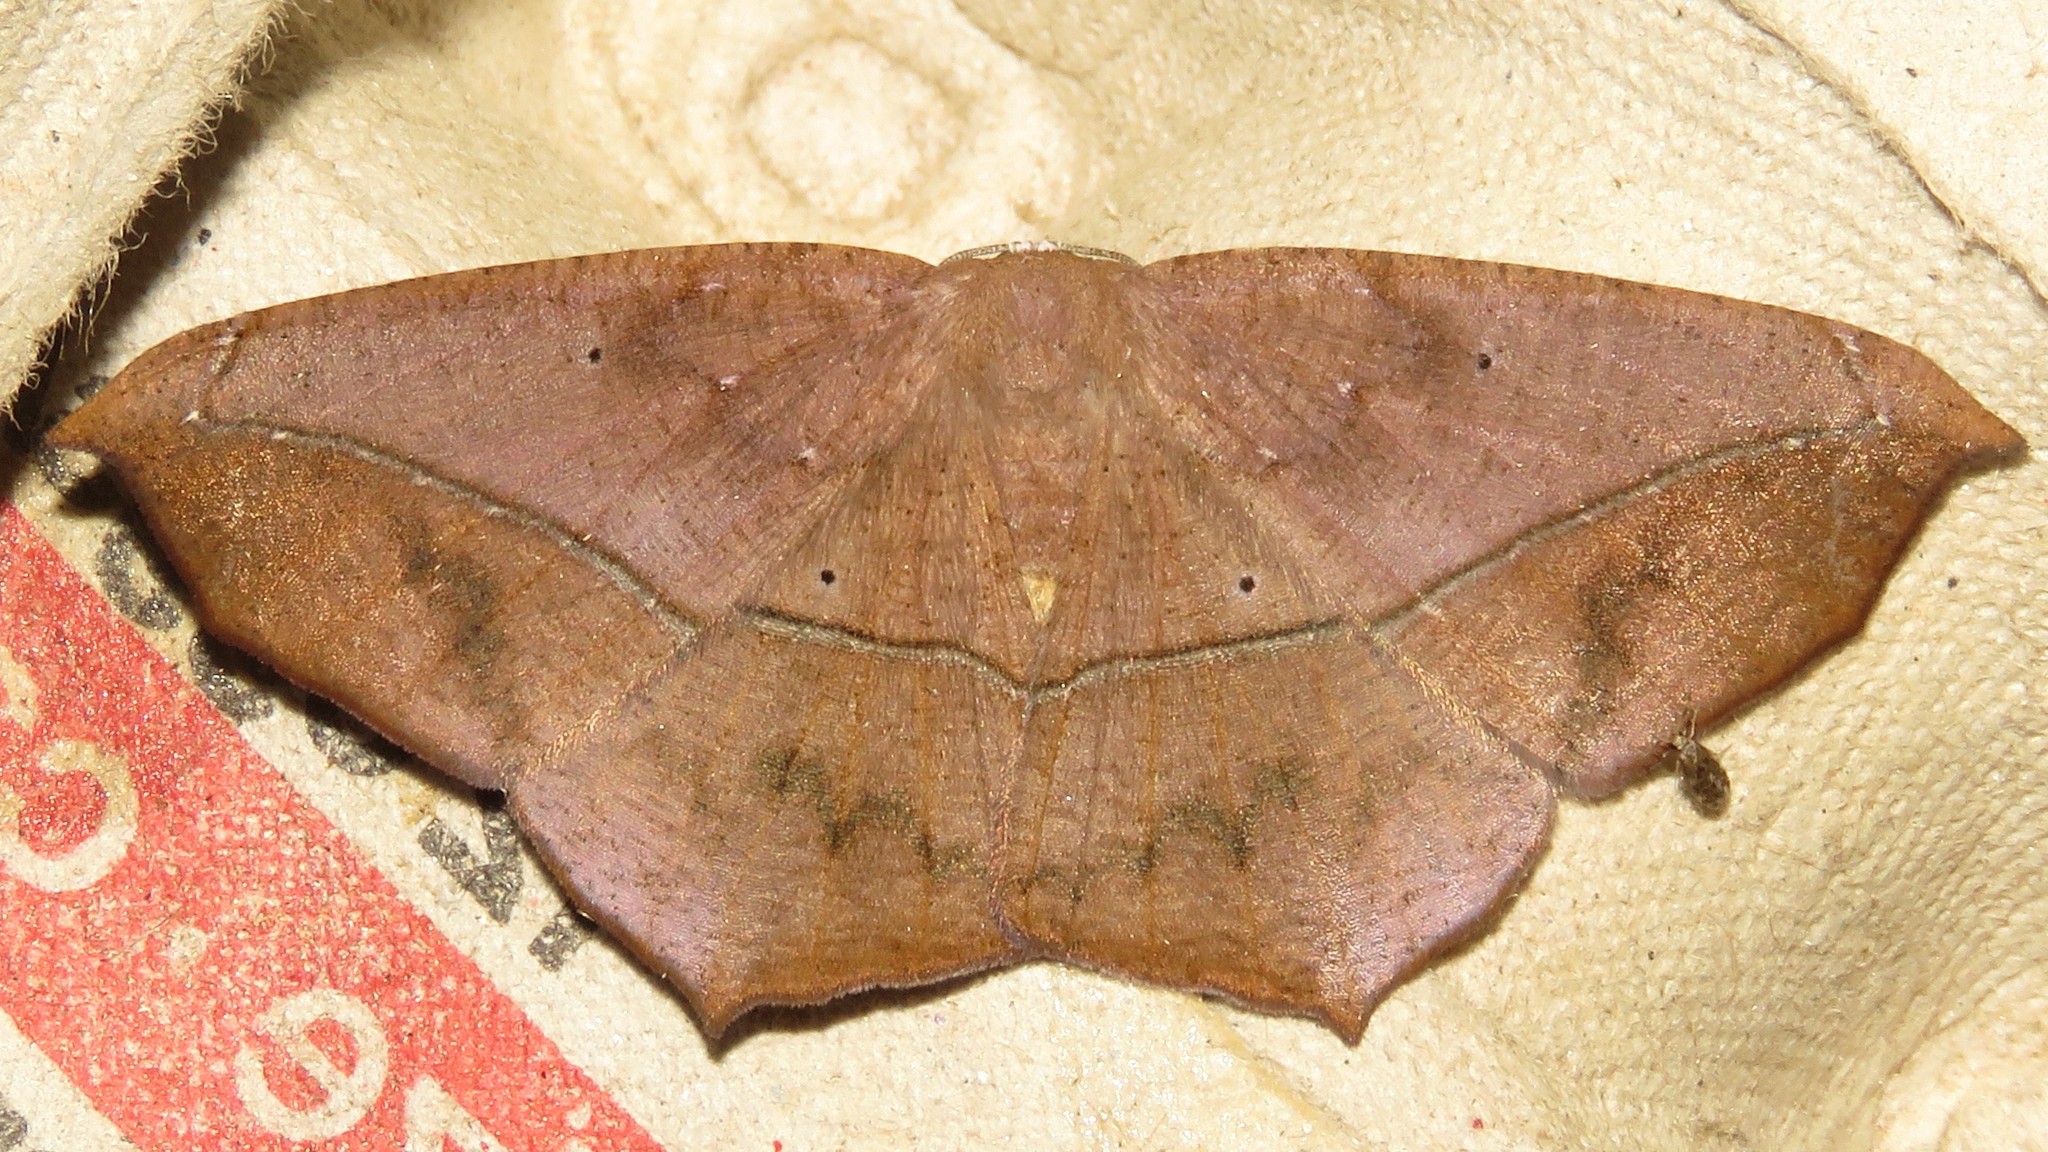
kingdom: Animalia
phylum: Arthropoda
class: Insecta
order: Lepidoptera
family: Geometridae
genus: Prochoerodes
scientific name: Prochoerodes lineola
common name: Large maple spanworm
